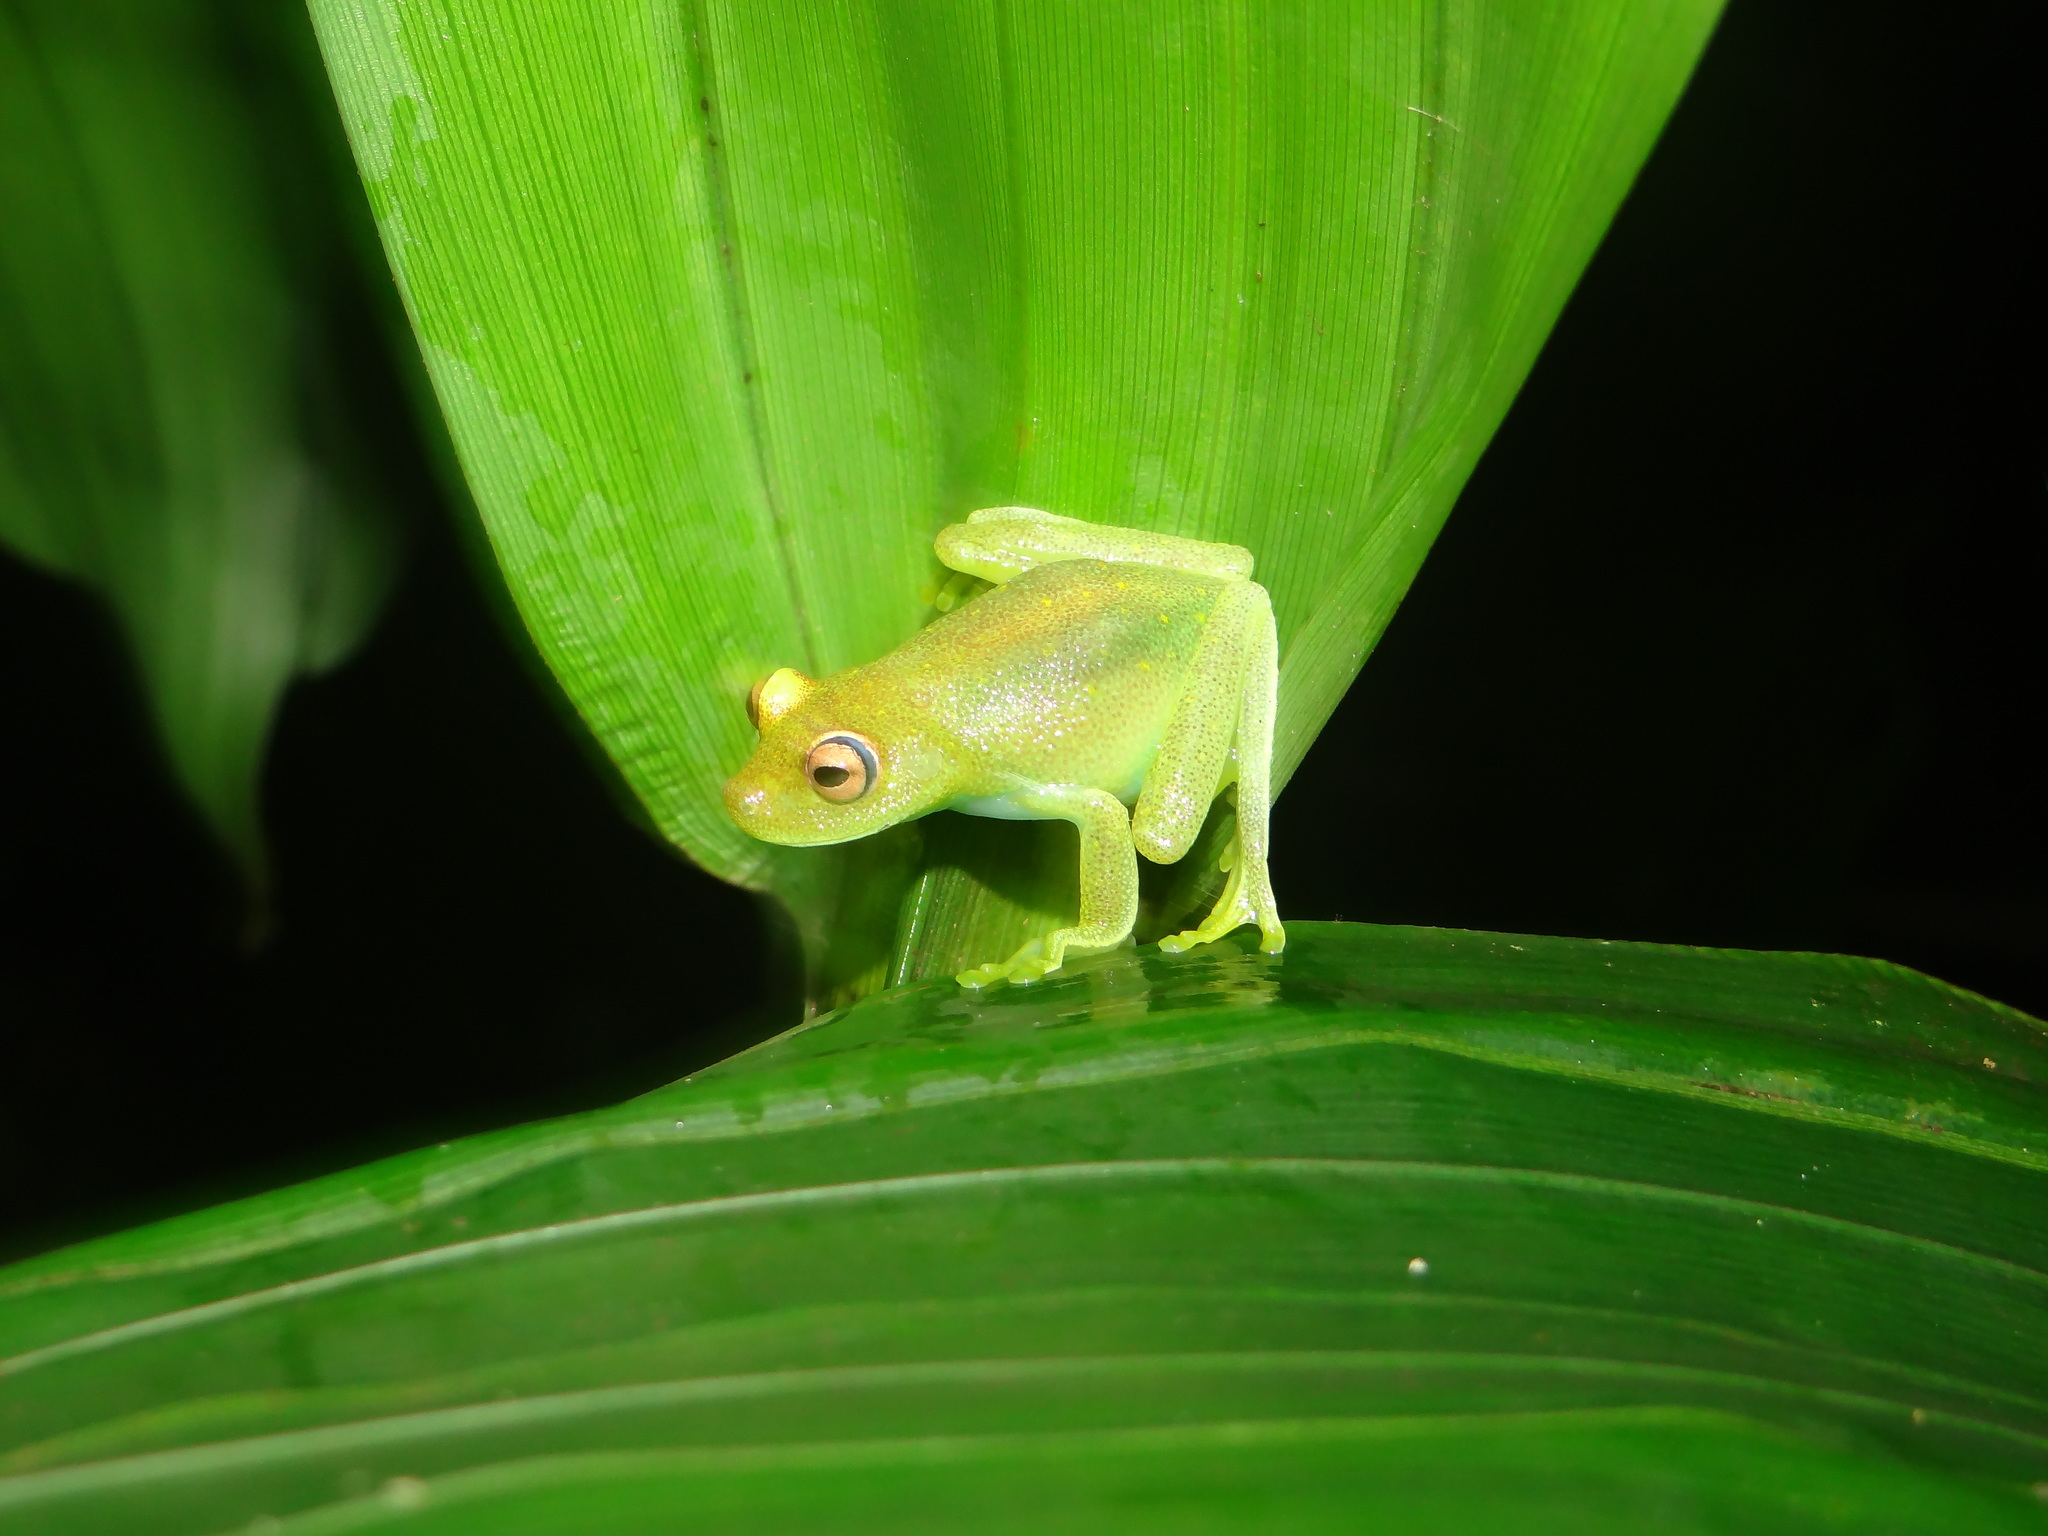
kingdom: Animalia
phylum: Chordata
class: Amphibia
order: Anura
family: Hylidae
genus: Boana
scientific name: Boana cinerascens
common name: Demerara falls treefrog
